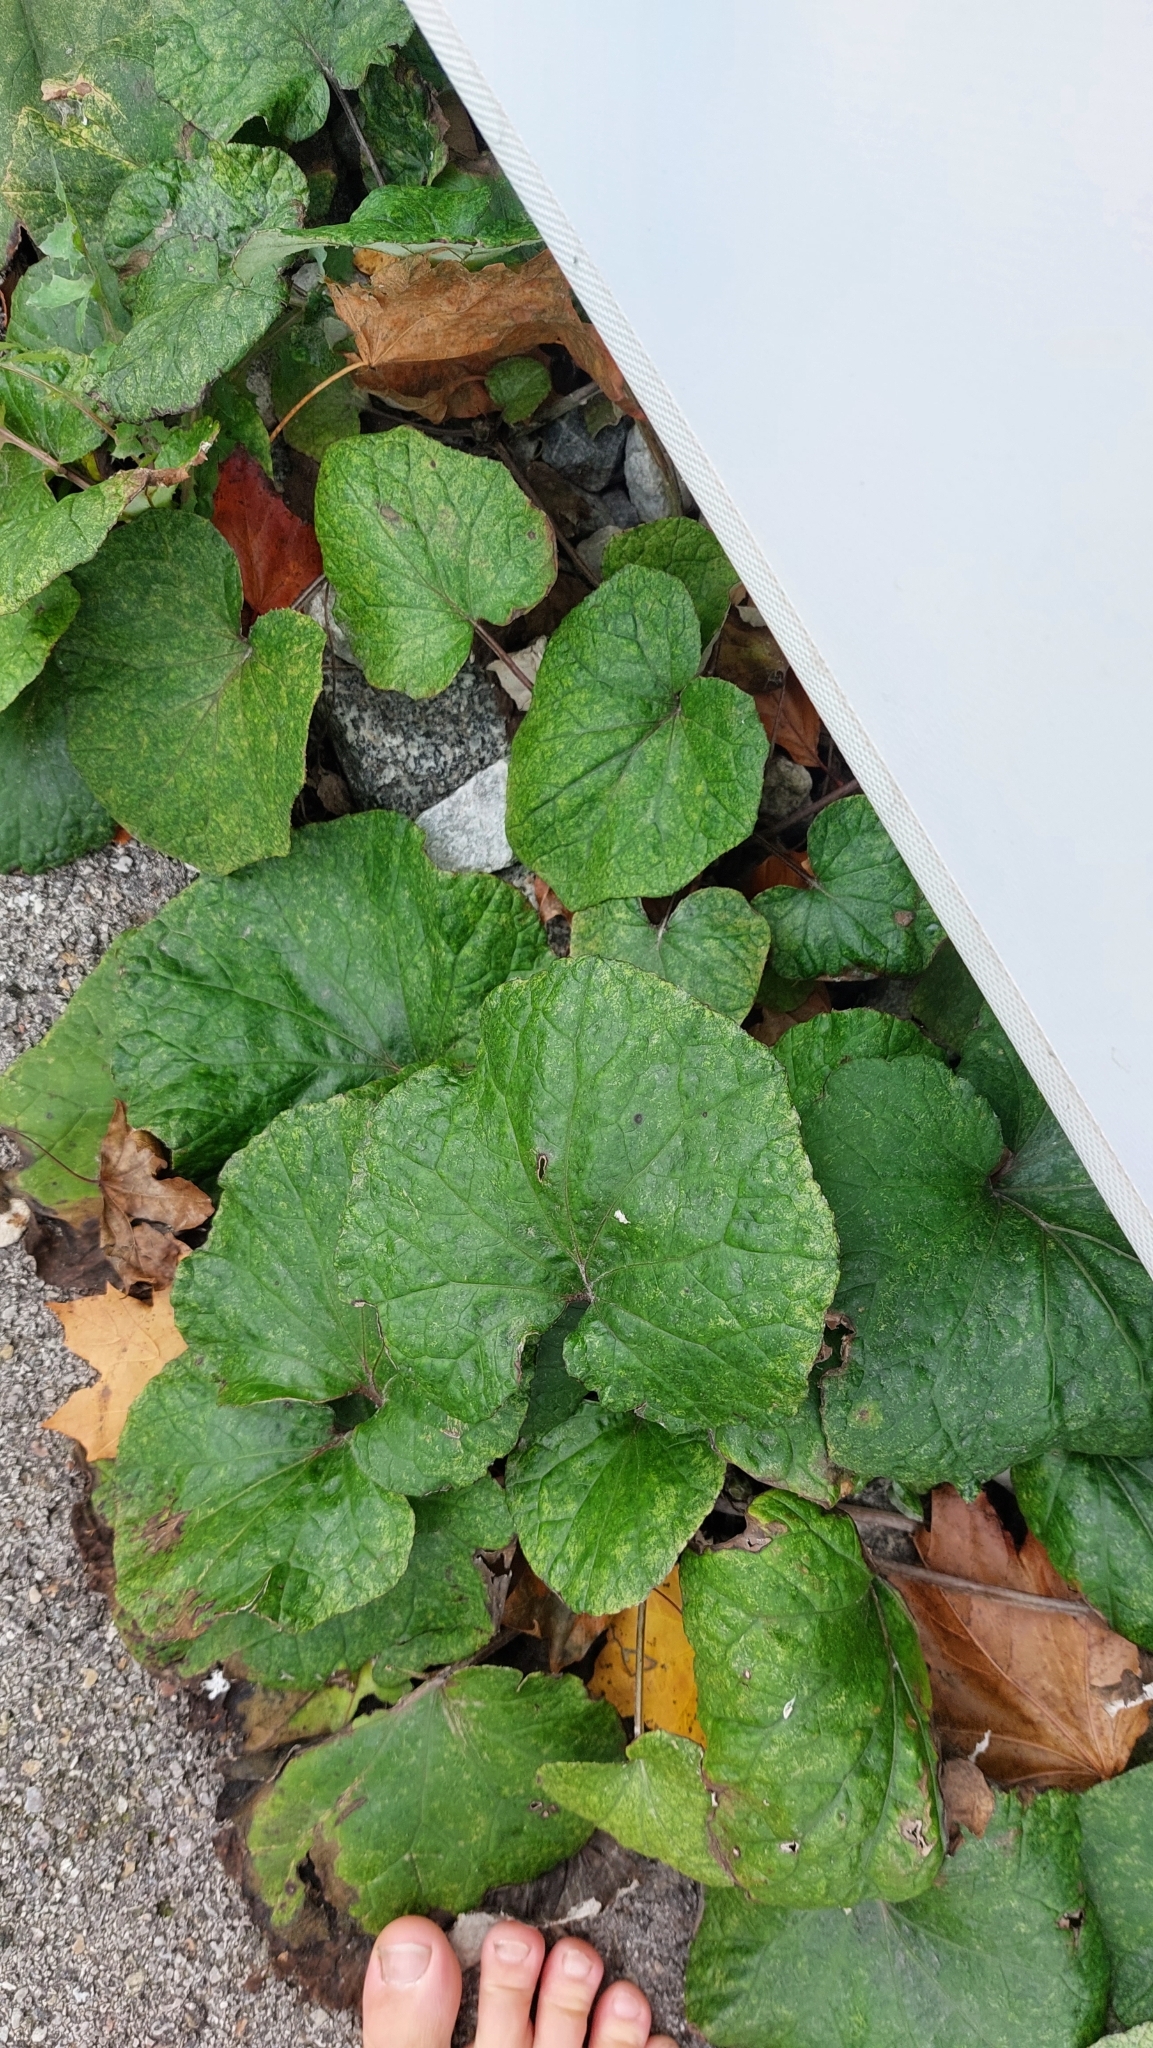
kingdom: Plantae
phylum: Tracheophyta
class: Magnoliopsida
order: Asterales
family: Asteraceae
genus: Tussilago
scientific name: Tussilago farfara
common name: Coltsfoot
